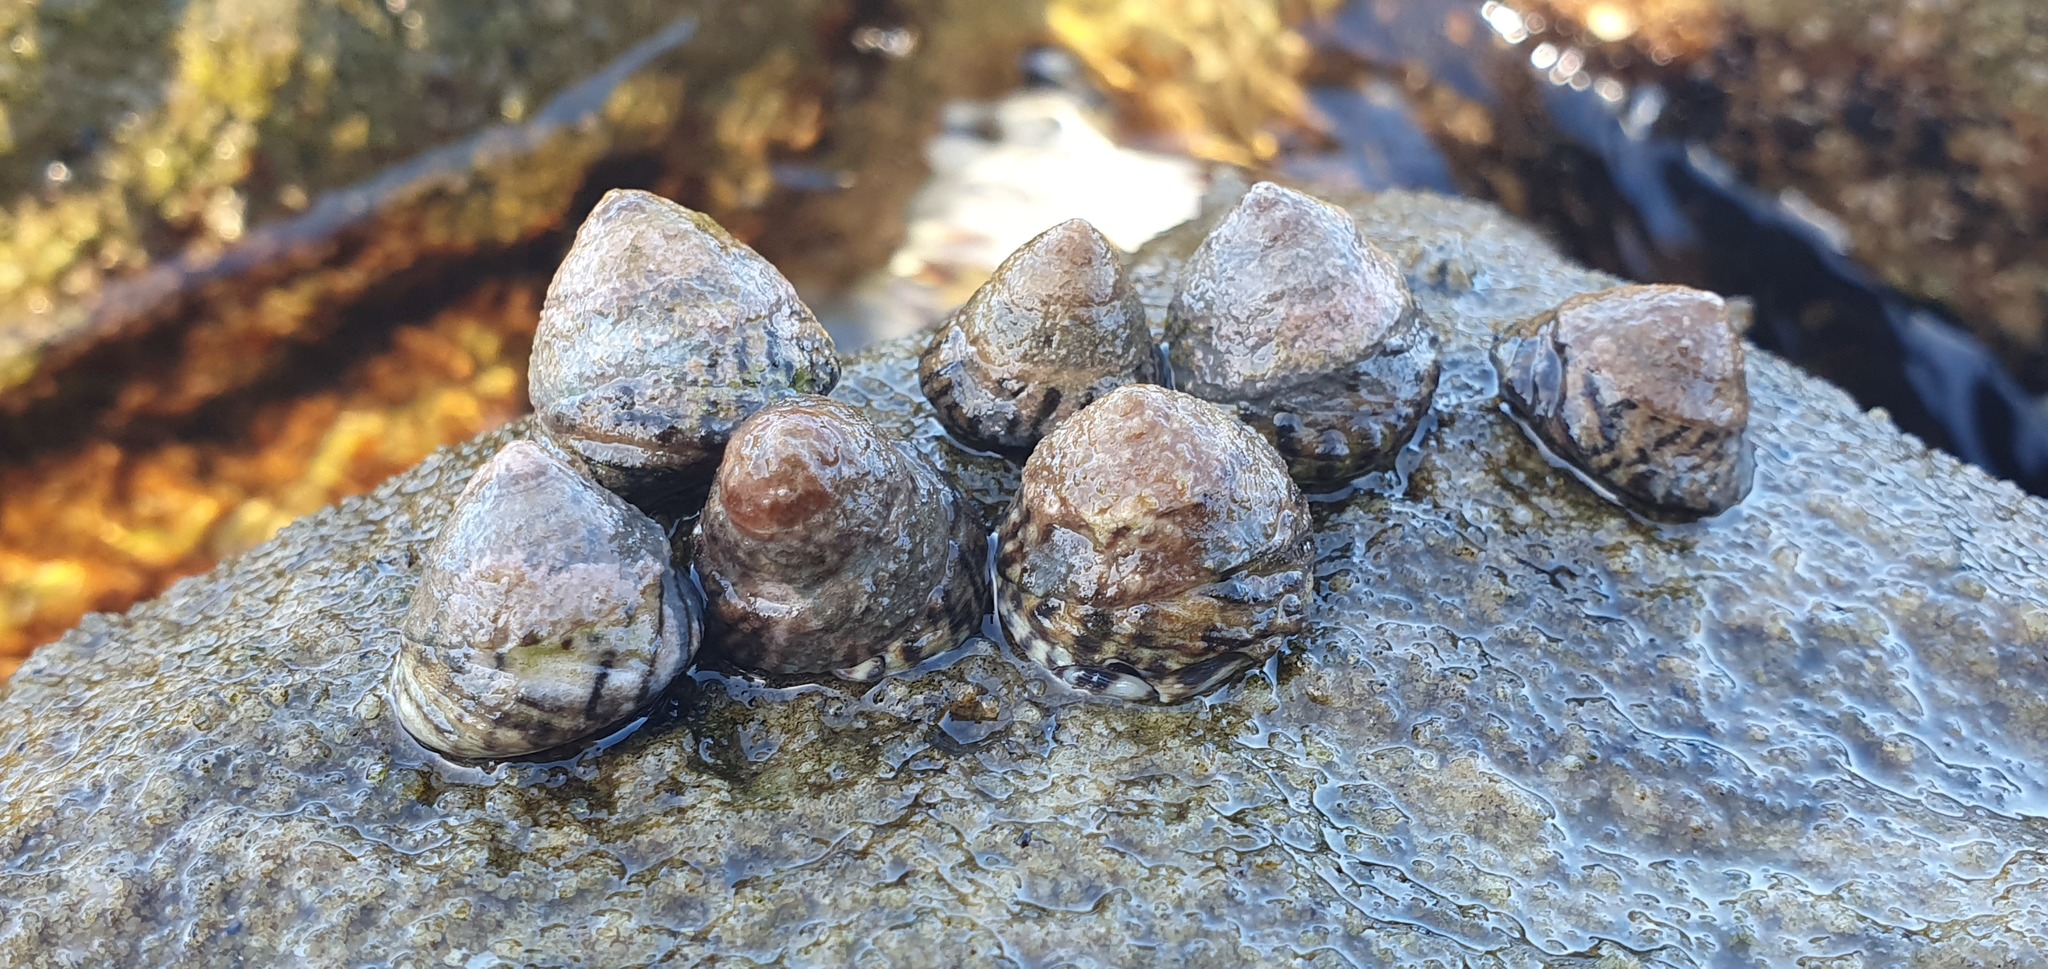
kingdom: Animalia
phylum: Mollusca
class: Gastropoda
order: Littorinimorpha
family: Littorinidae
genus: Bembicium
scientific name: Bembicium nanum
